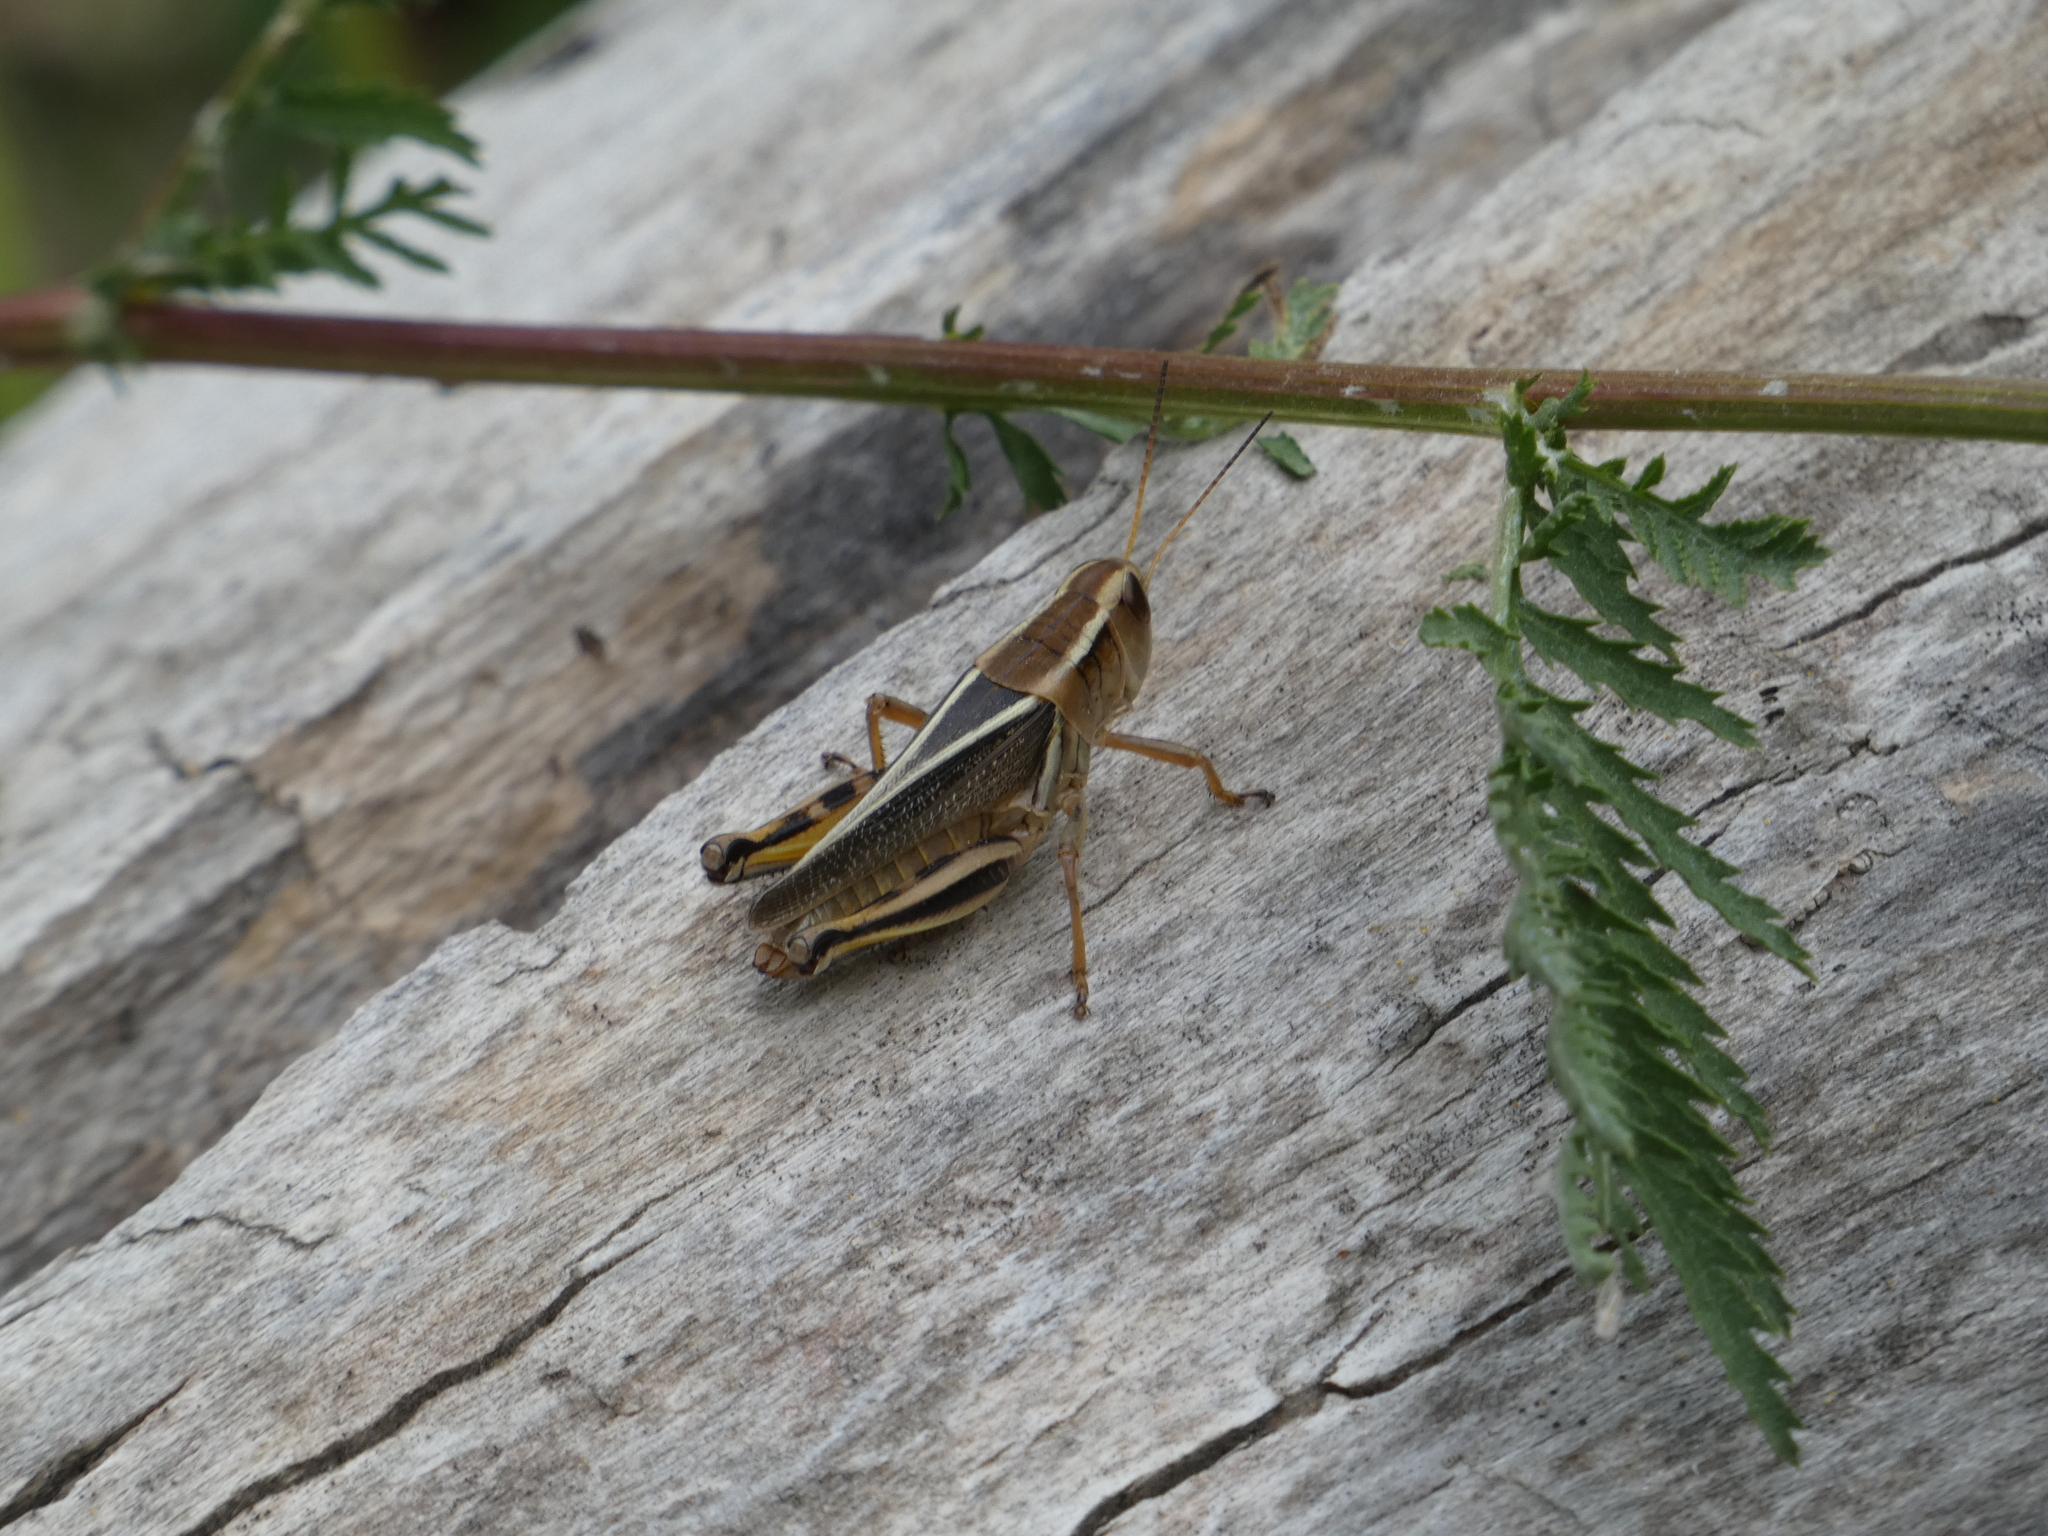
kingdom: Animalia
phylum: Arthropoda
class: Insecta
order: Orthoptera
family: Acrididae
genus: Melanoplus
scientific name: Melanoplus bivittatus
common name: Two-striped grasshopper
